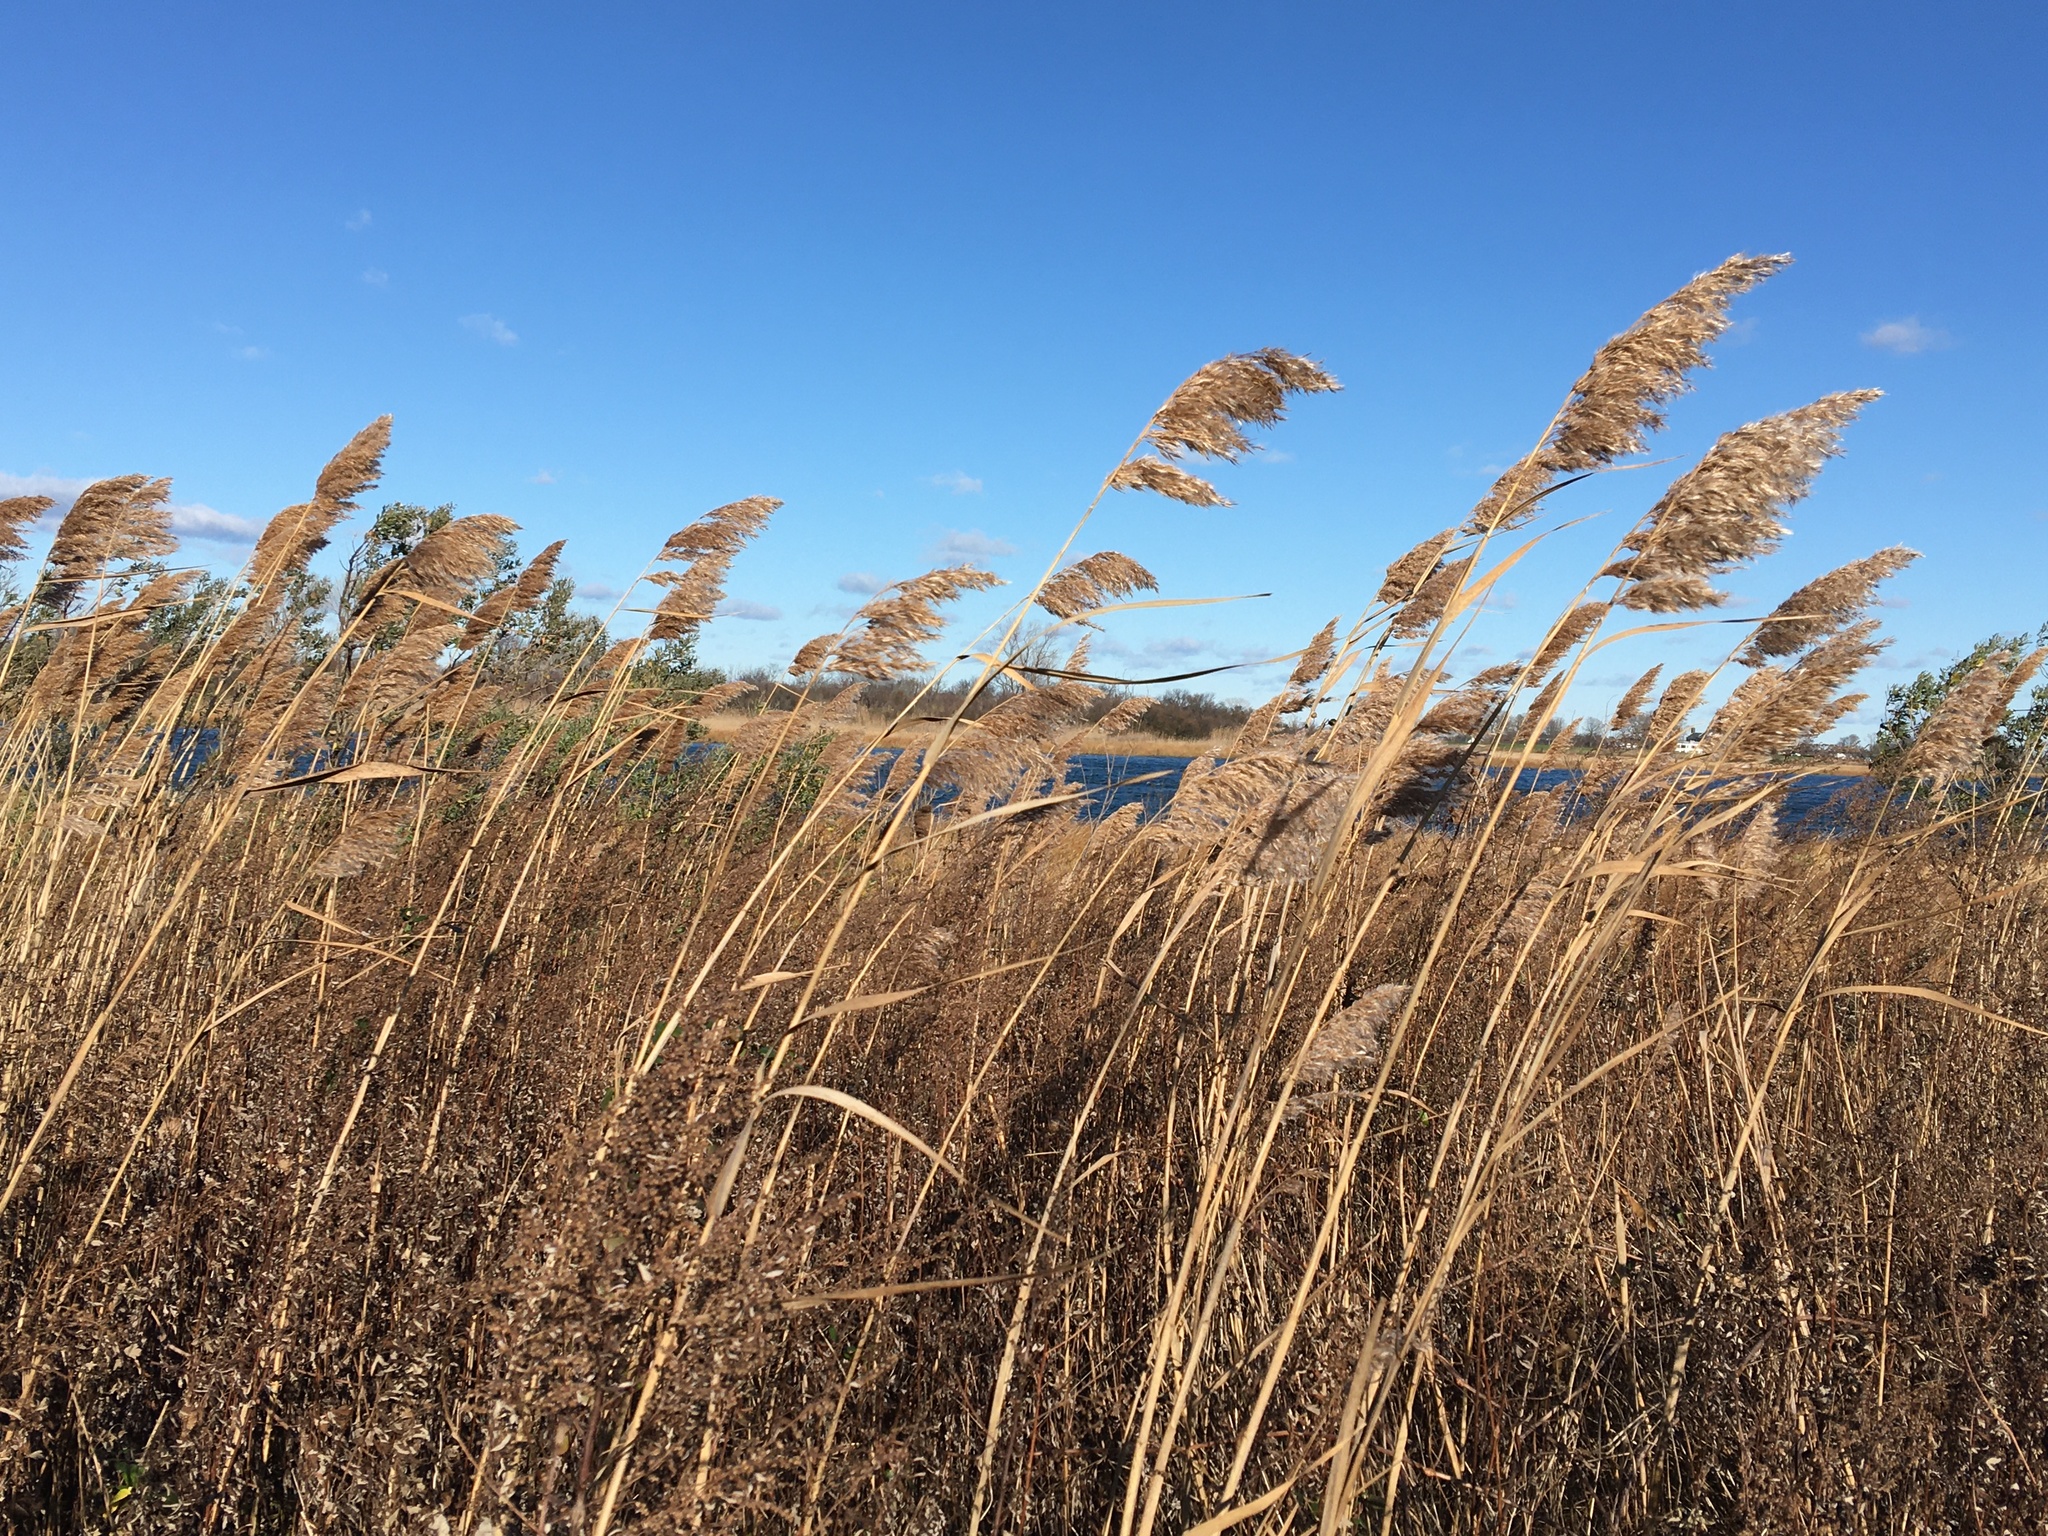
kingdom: Plantae
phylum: Tracheophyta
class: Liliopsida
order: Poales
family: Poaceae
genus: Phragmites
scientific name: Phragmites australis
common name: Common reed
